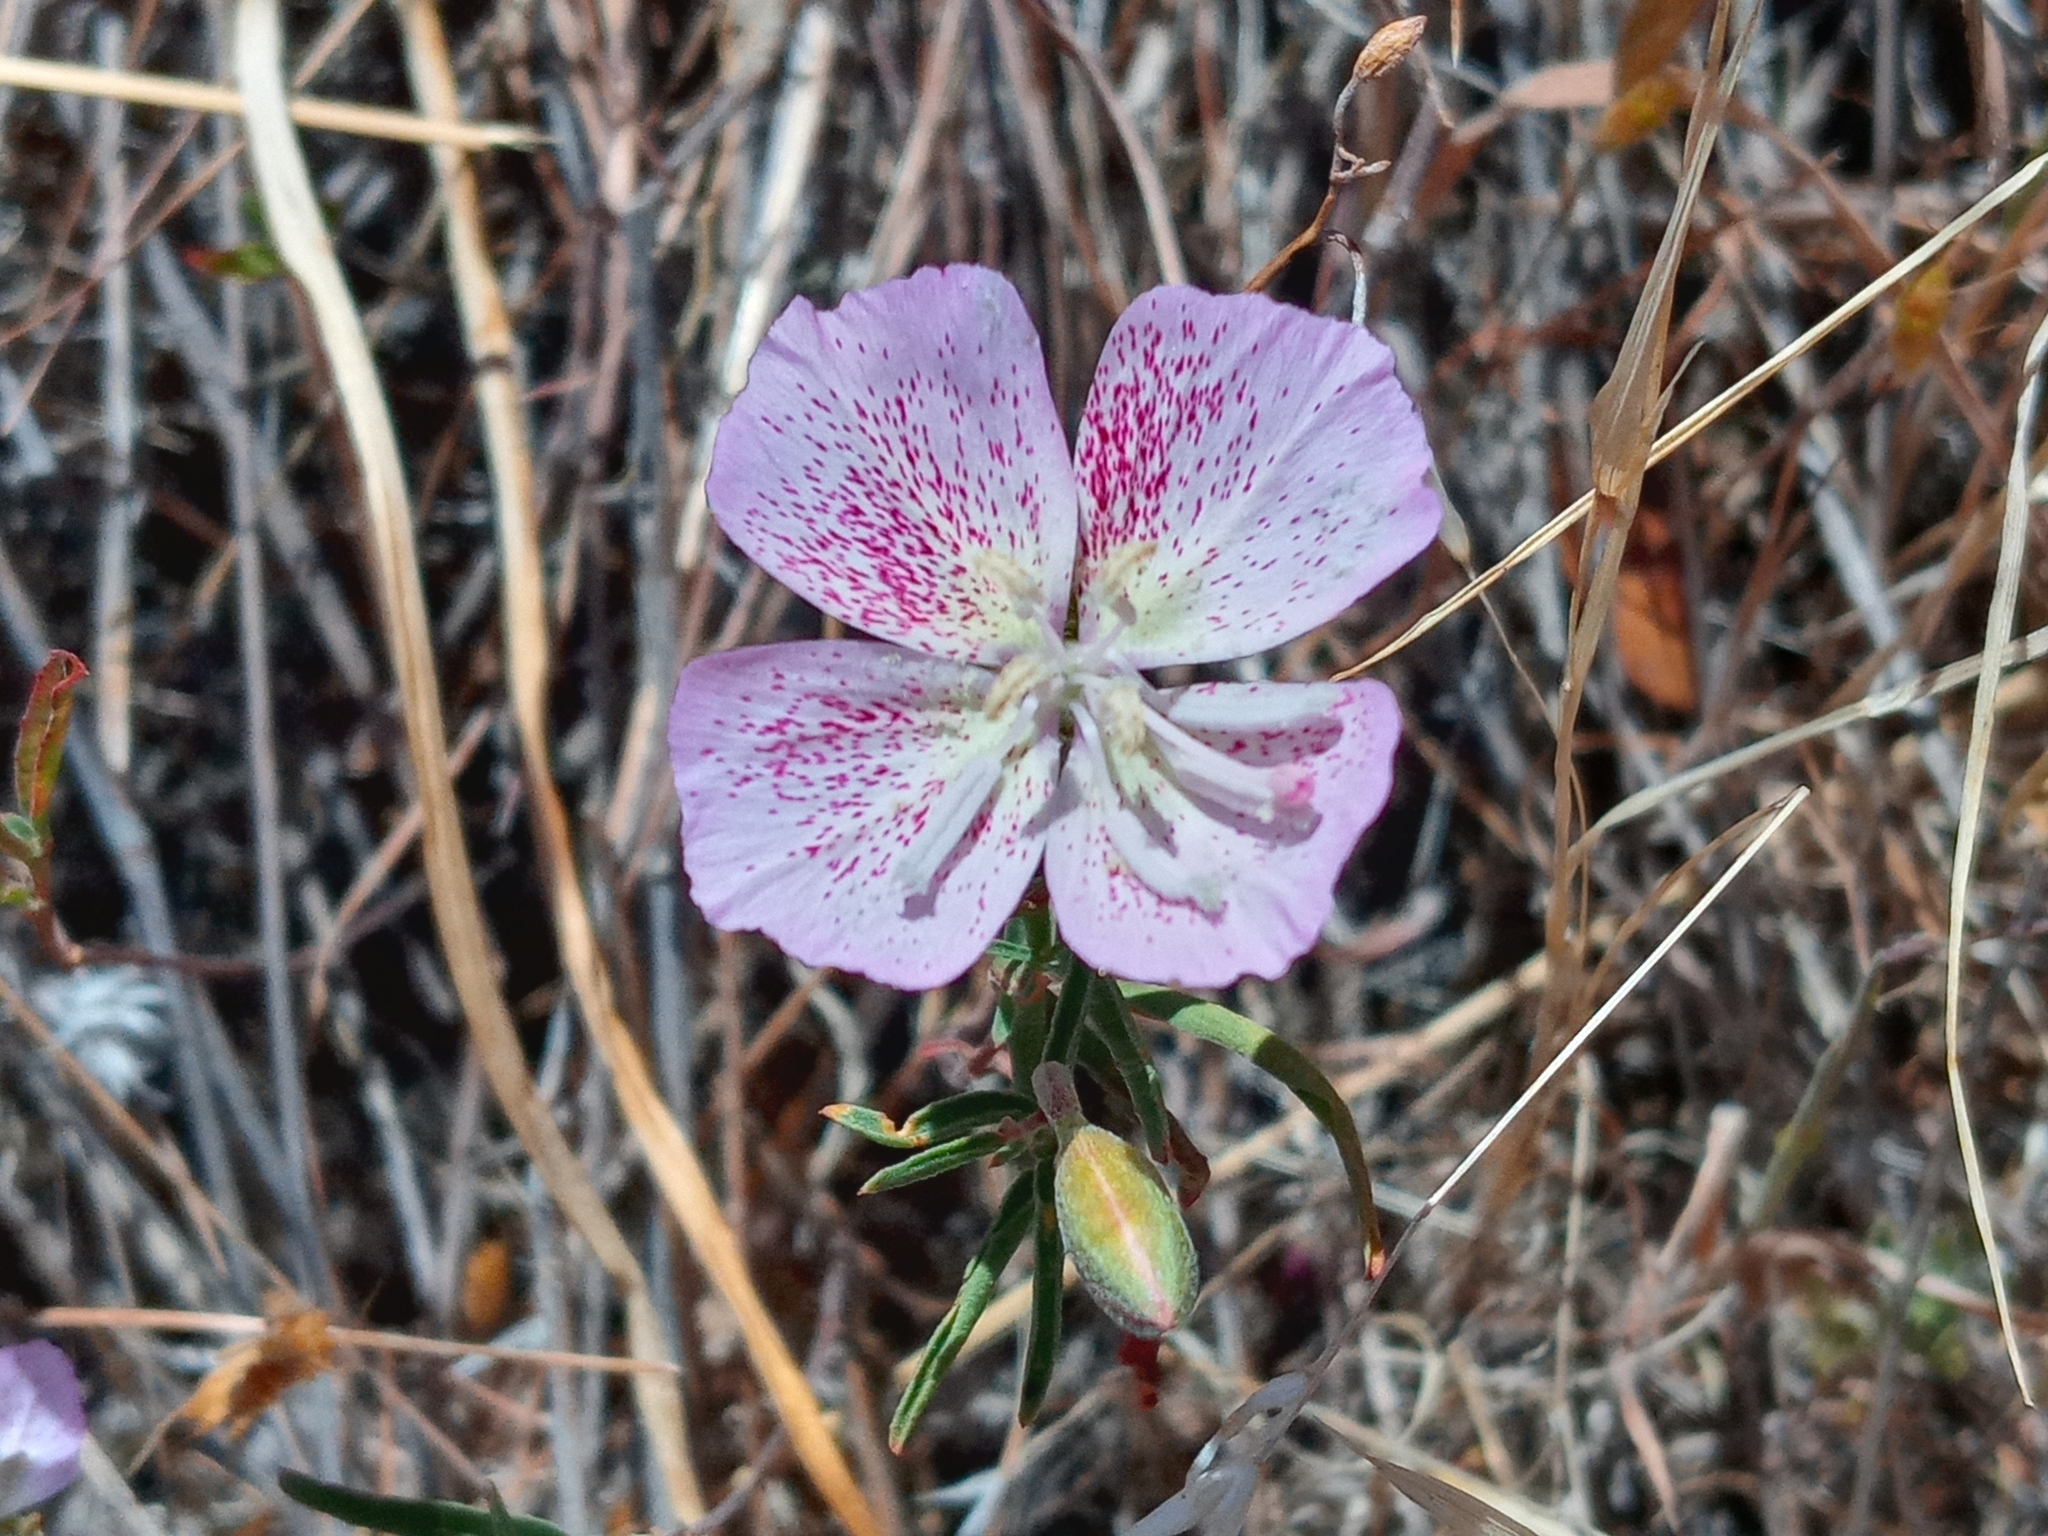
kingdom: Plantae
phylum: Tracheophyta
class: Magnoliopsida
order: Myrtales
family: Onagraceae
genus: Clarkia
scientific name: Clarkia bottae
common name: Punch-bowl godetia
